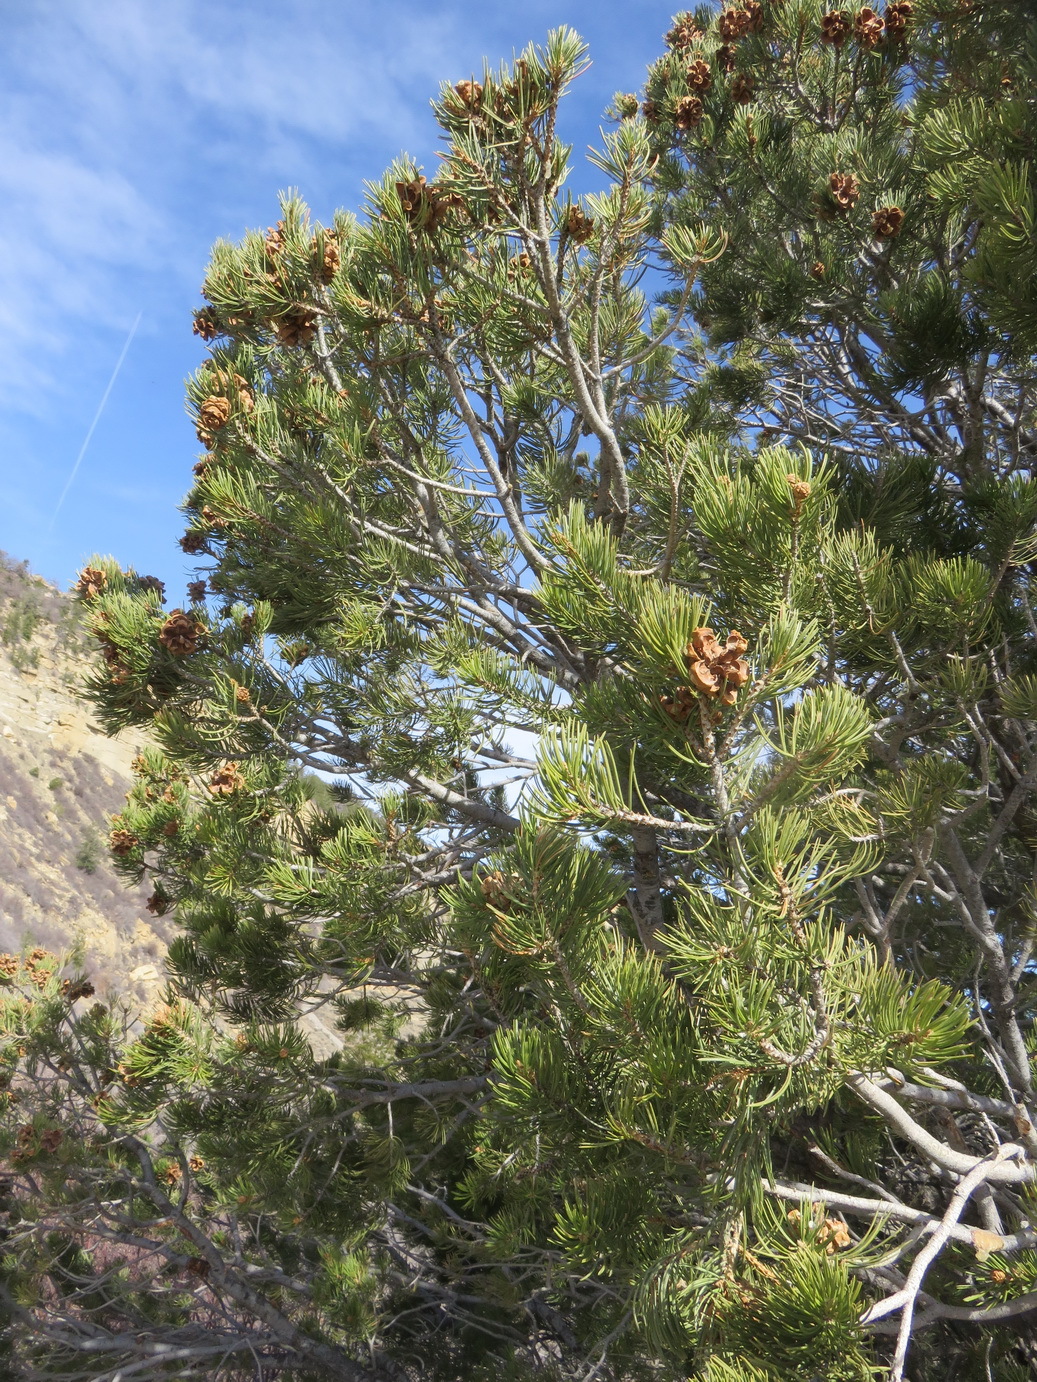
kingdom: Plantae
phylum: Tracheophyta
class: Pinopsida
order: Pinales
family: Pinaceae
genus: Pinus
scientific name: Pinus edulis
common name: Colorado pinyon
